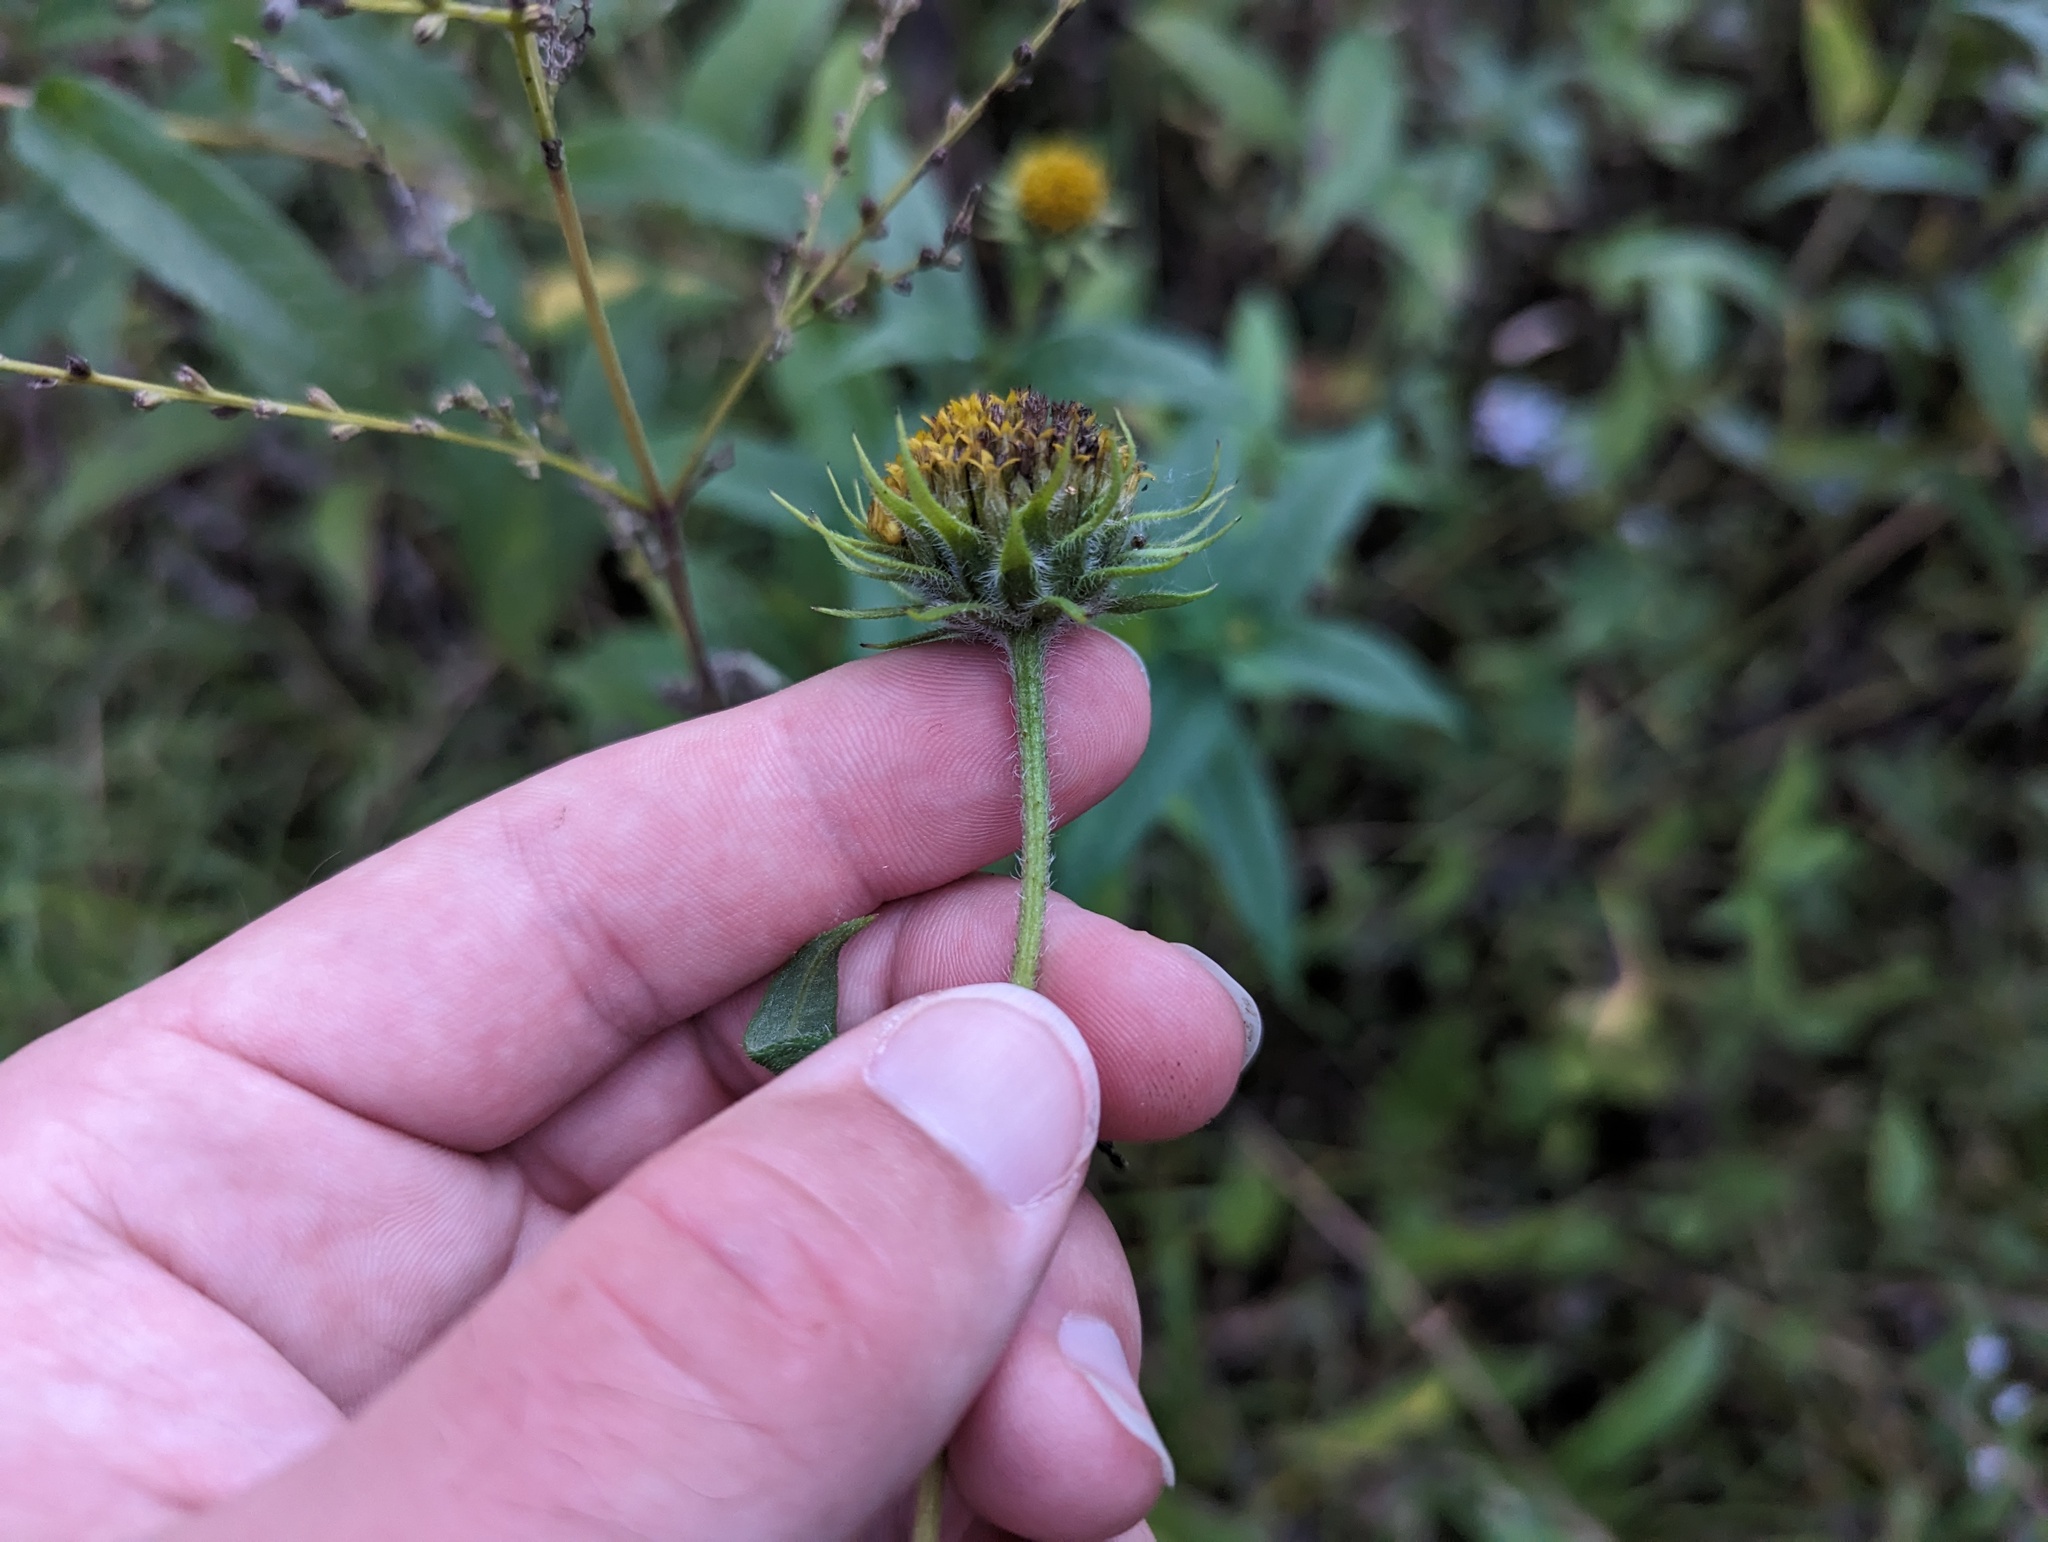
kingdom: Plantae
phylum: Tracheophyta
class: Magnoliopsida
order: Asterales
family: Asteraceae
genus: Helianthus
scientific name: Helianthus giganteus
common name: Giant sunflower
